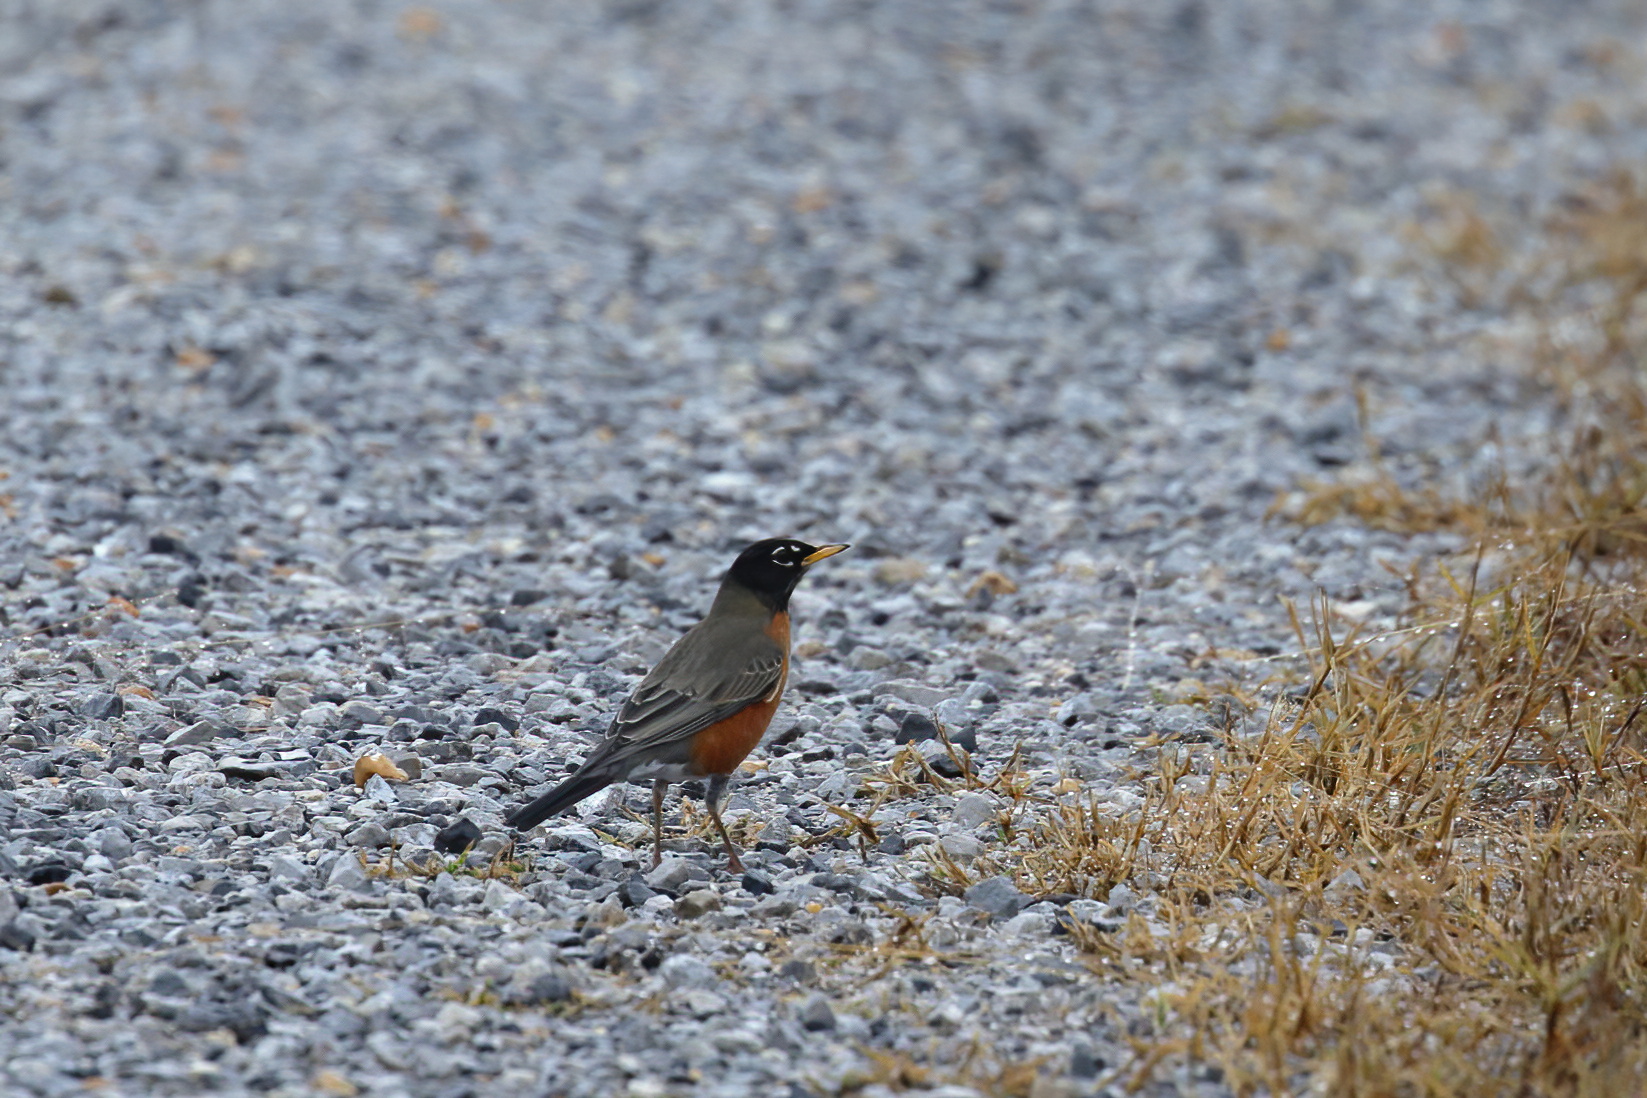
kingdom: Animalia
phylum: Chordata
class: Aves
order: Passeriformes
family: Turdidae
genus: Turdus
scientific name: Turdus migratorius
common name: American robin
